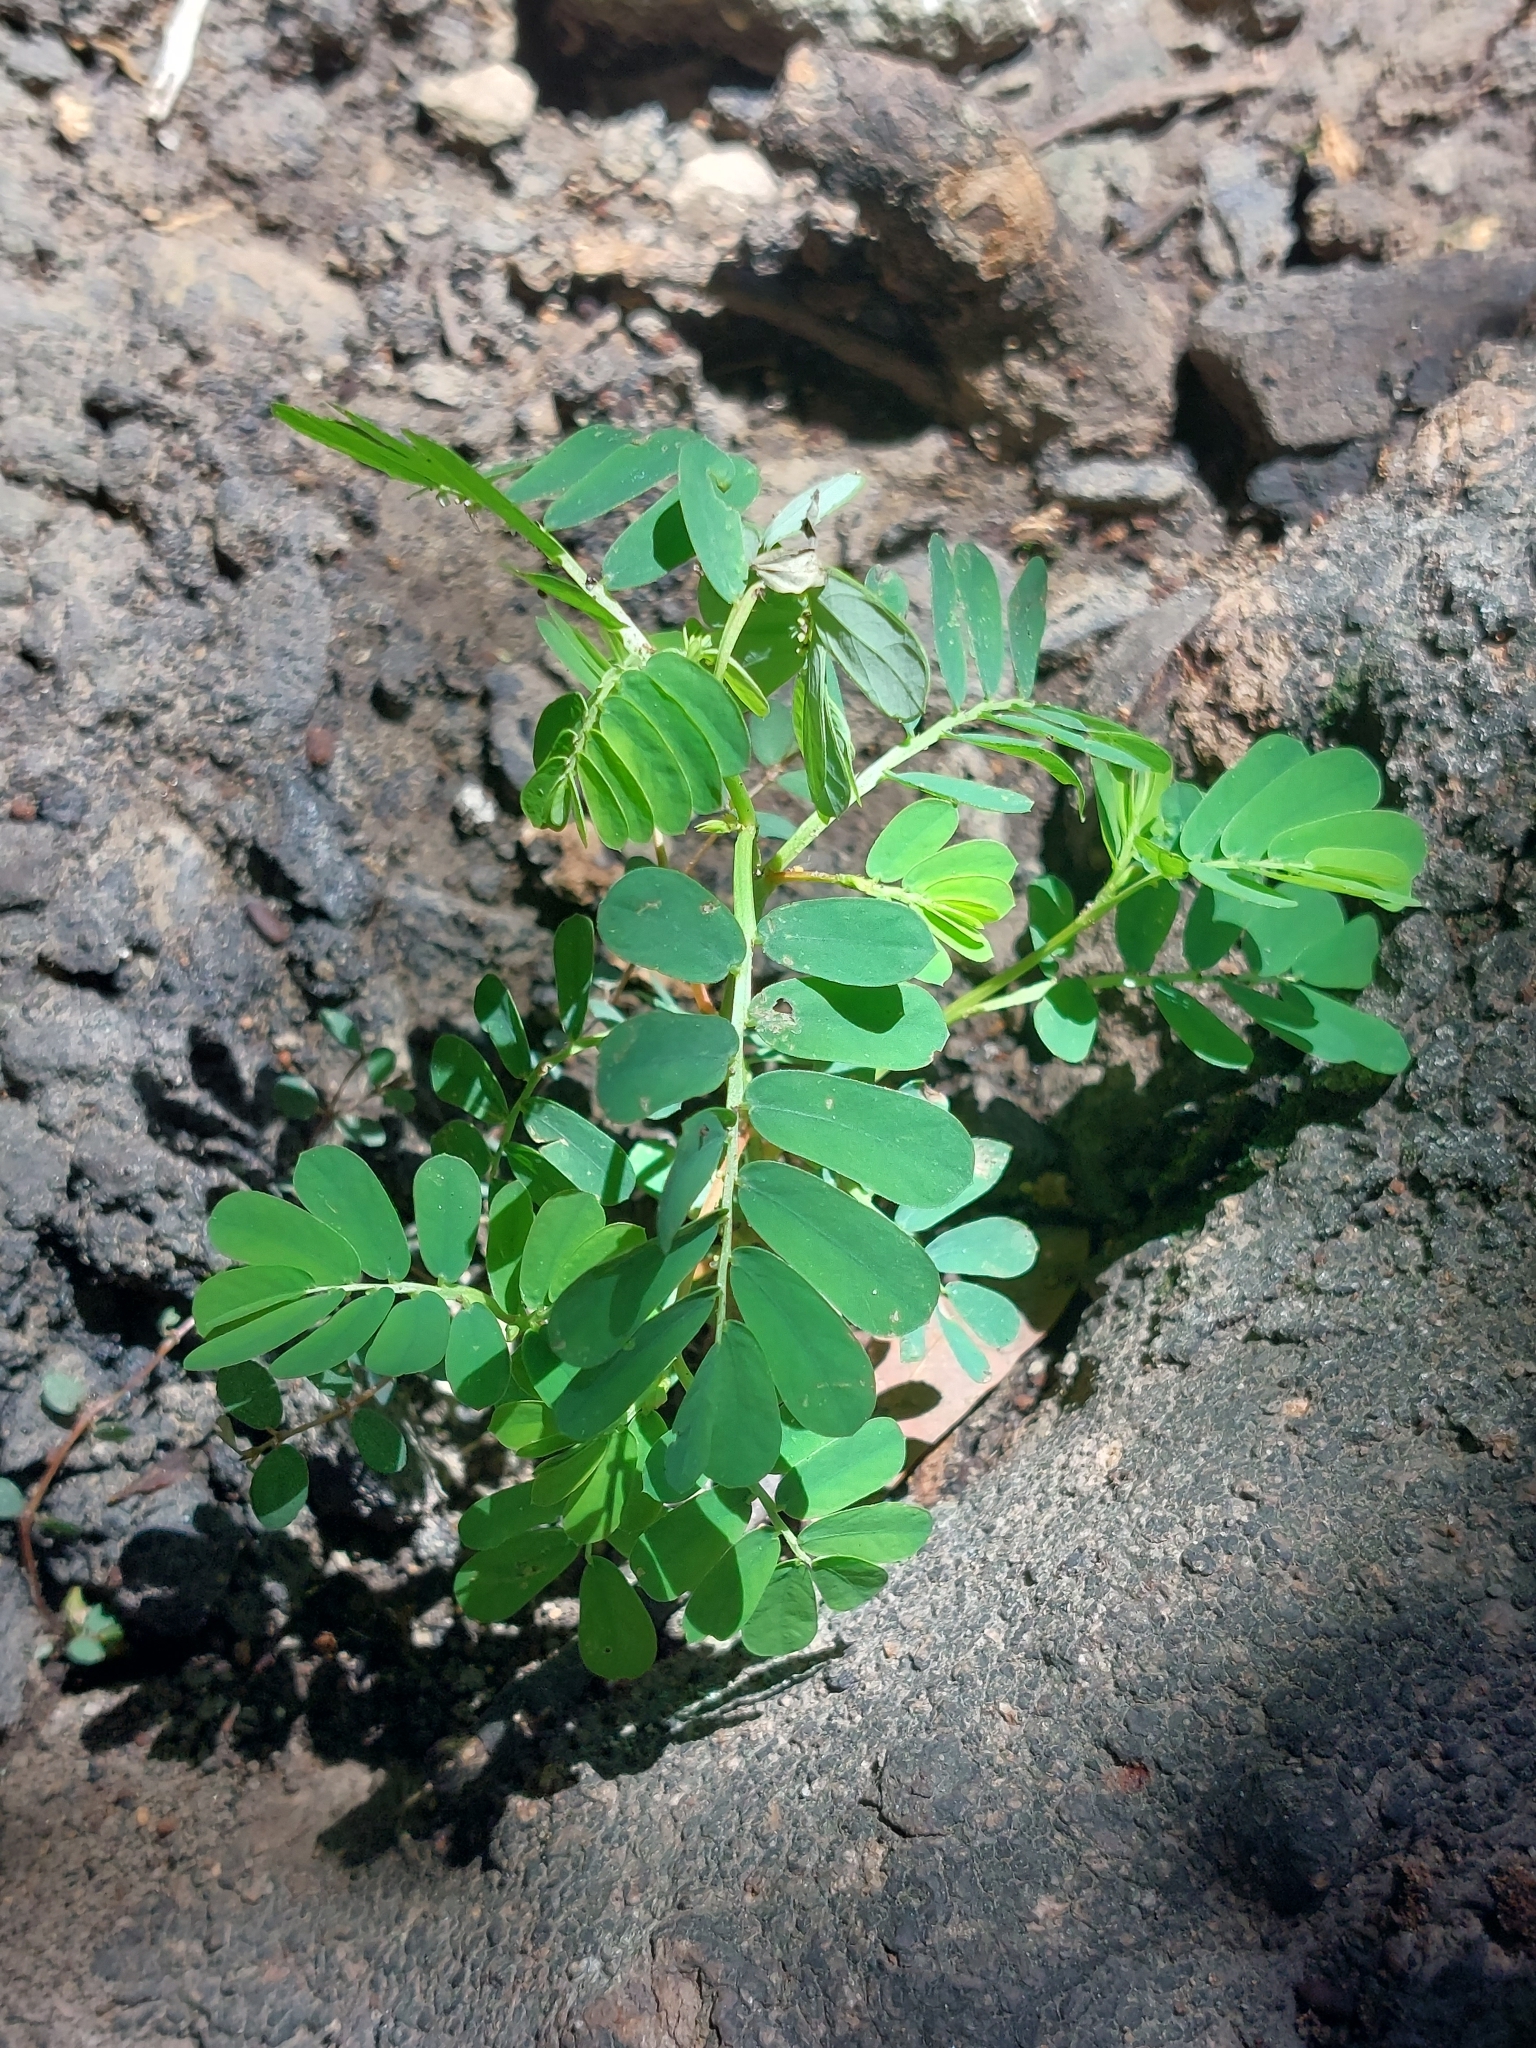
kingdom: Plantae
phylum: Tracheophyta
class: Magnoliopsida
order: Malpighiales
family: Phyllanthaceae
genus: Phyllanthus
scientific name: Phyllanthus urinaria
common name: Chamber bitter
